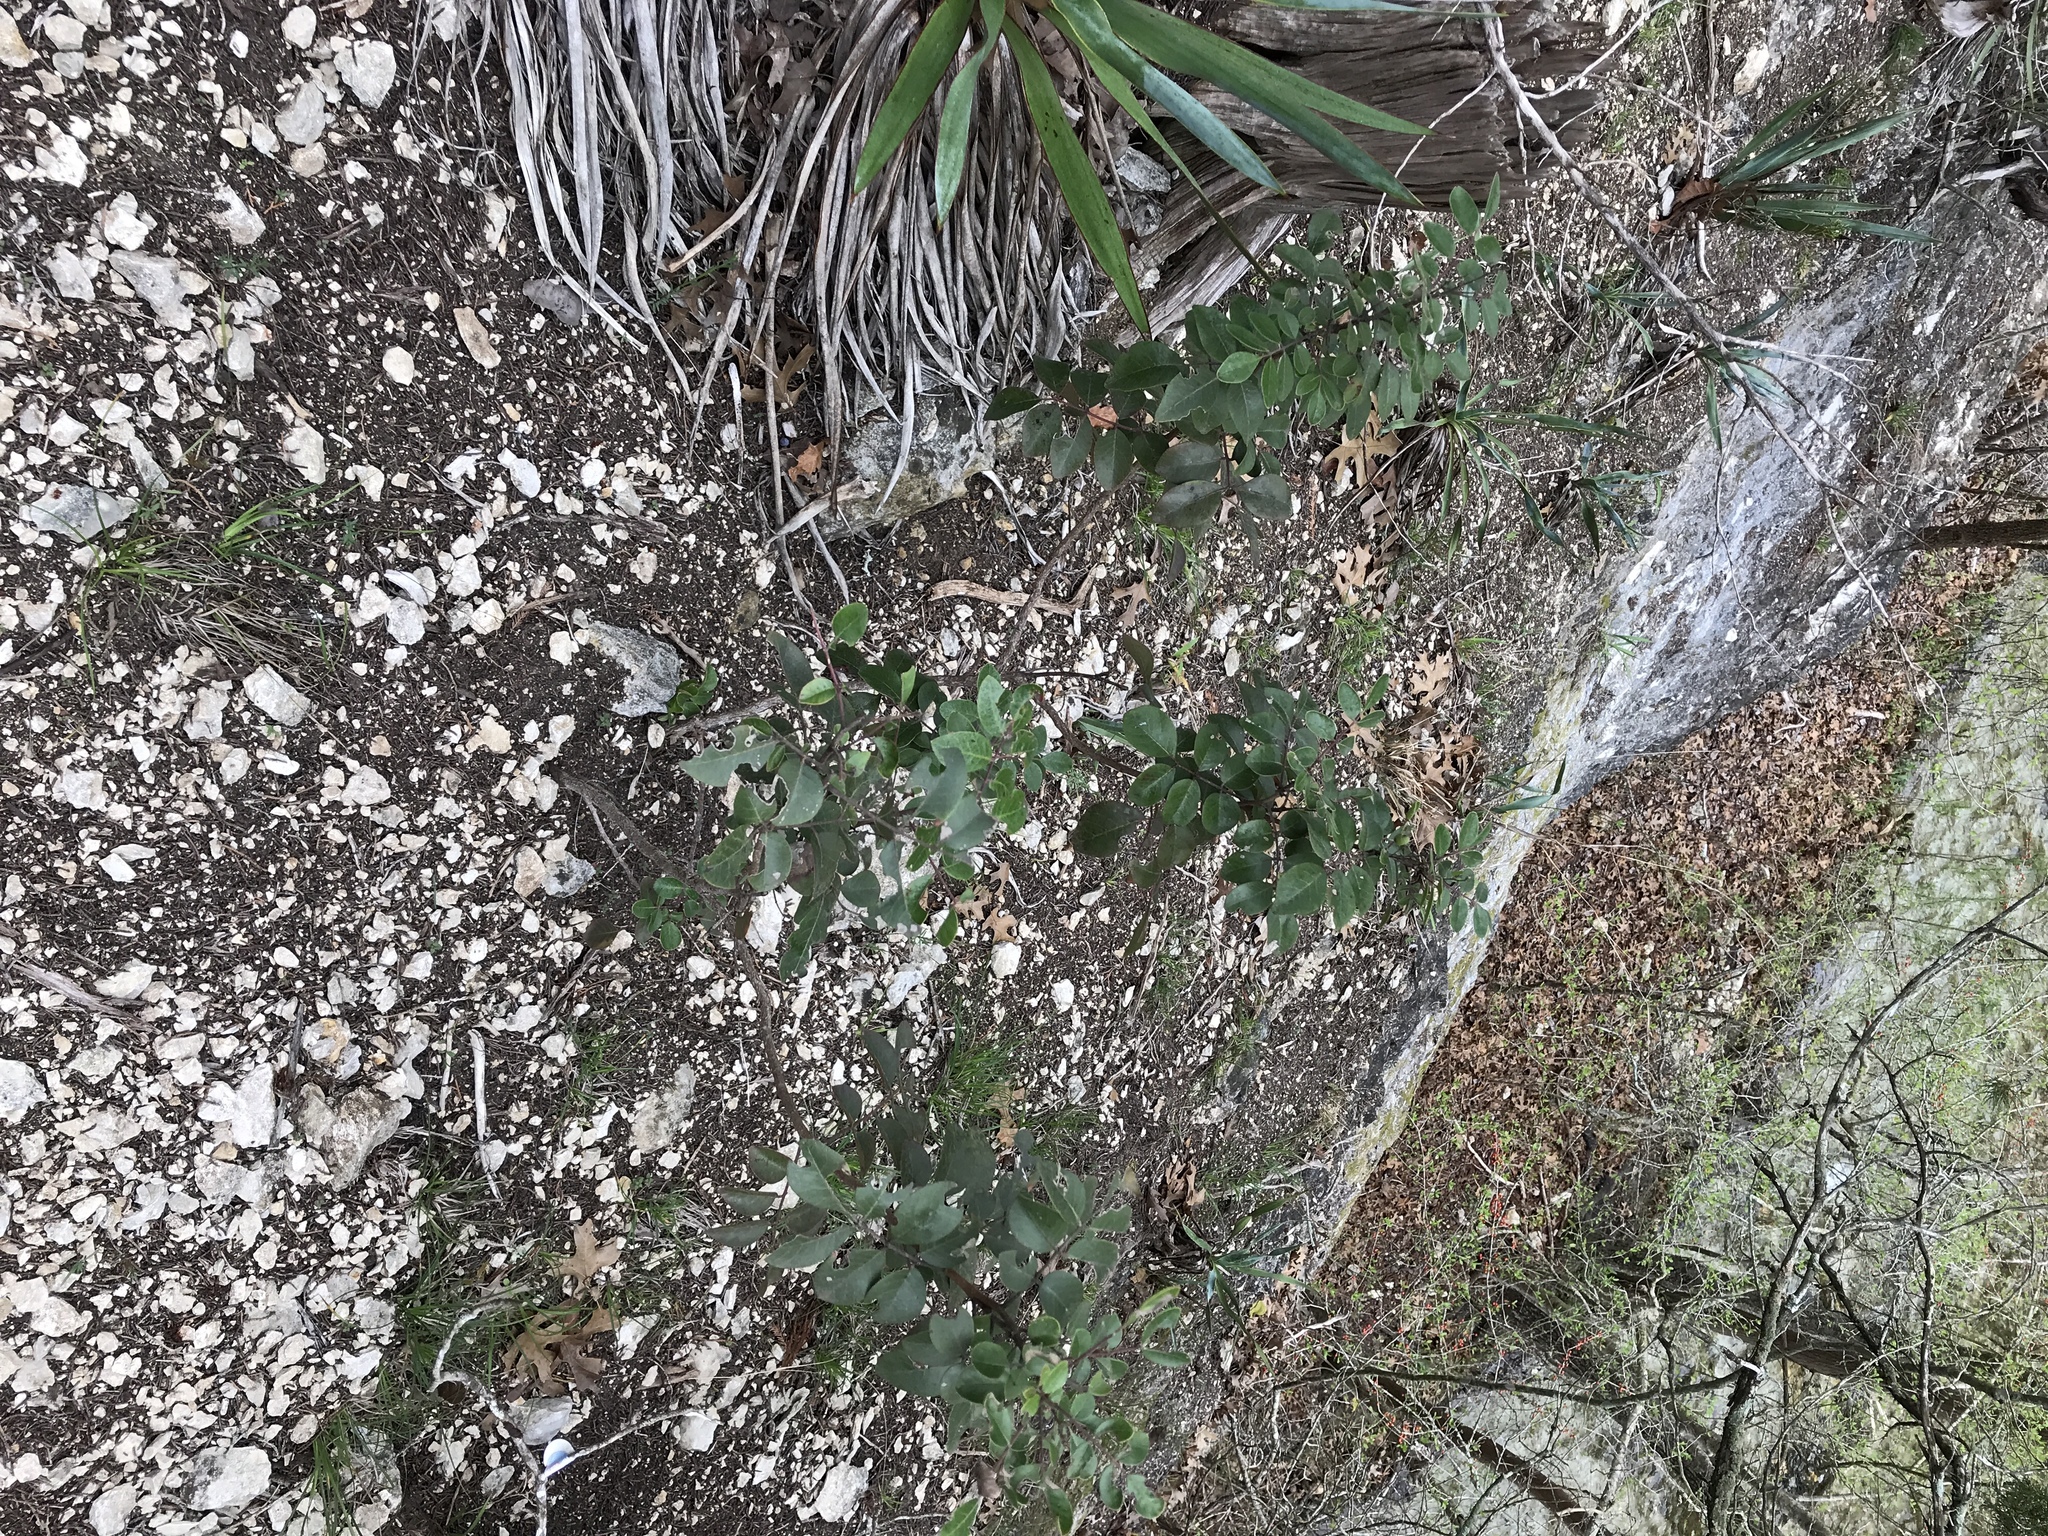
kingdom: Plantae
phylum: Tracheophyta
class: Magnoliopsida
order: Sapindales
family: Anacardiaceae
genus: Rhus
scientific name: Rhus virens
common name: Evergreen sumac
